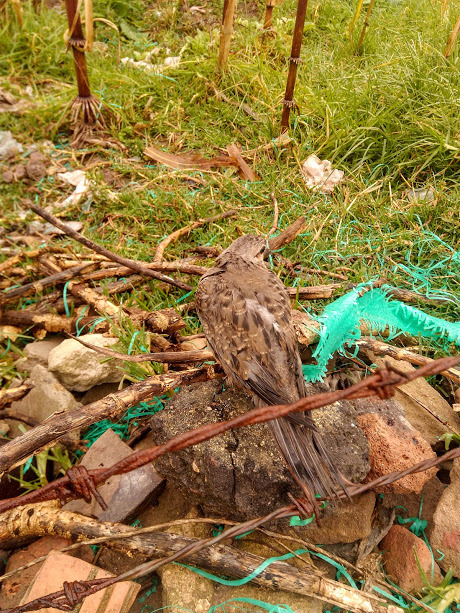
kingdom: Animalia
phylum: Chordata
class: Aves
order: Columbiformes
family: Columbidae
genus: Zenaida
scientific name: Zenaida auriculata
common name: Eared dove
